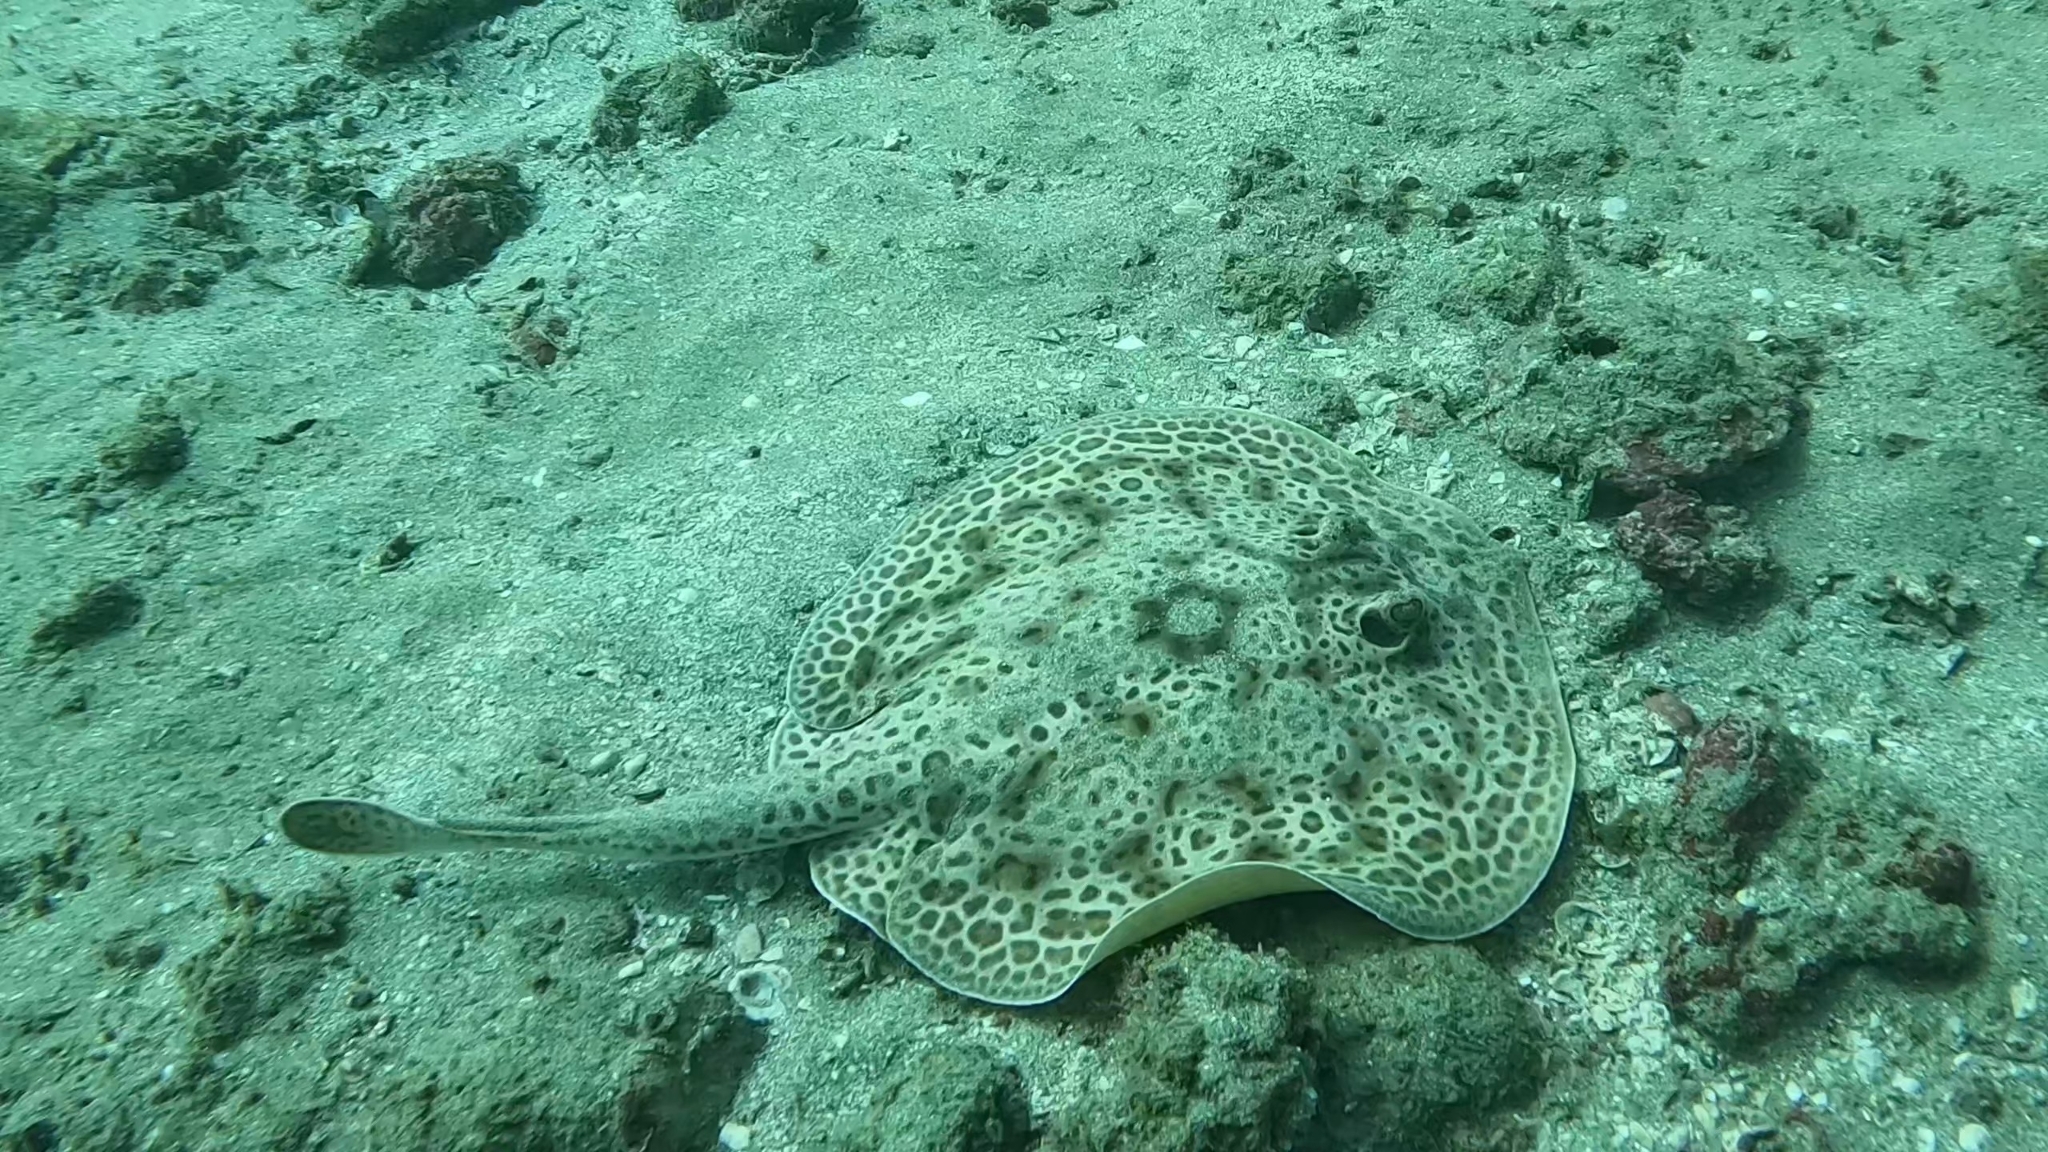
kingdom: Animalia
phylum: Chordata
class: Elasmobranchii
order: Myliobatiformes
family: Urotrygonidae
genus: Urobatis
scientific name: Urobatis pardalis
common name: Leopard round ray
